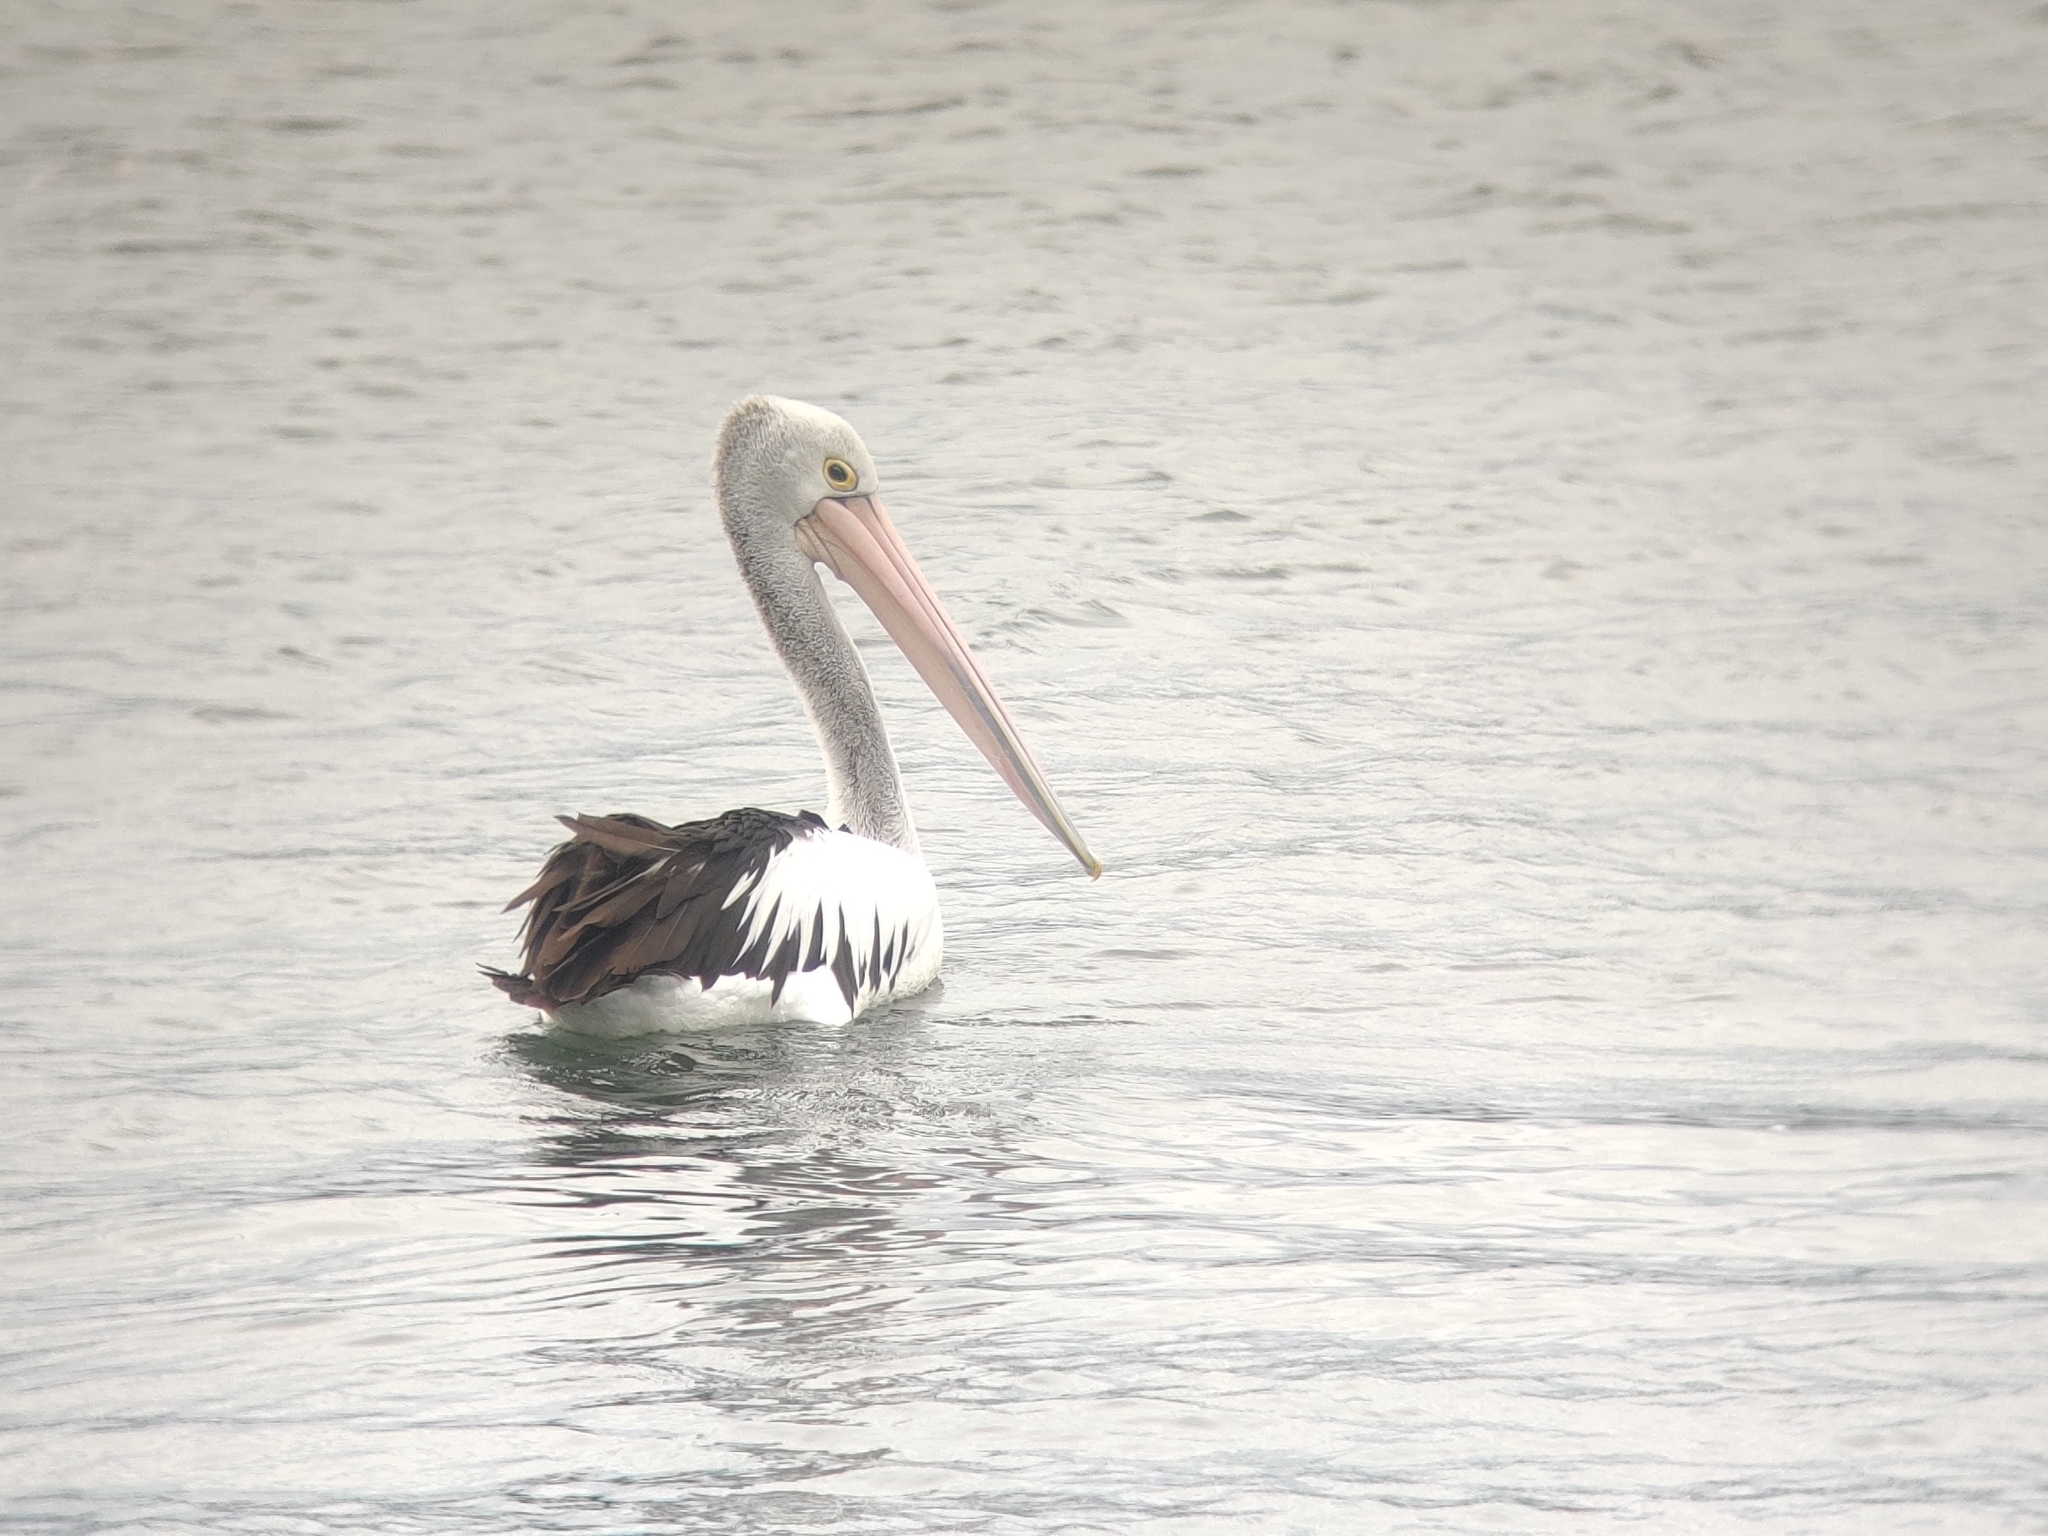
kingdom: Animalia
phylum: Chordata
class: Aves
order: Pelecaniformes
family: Pelecanidae
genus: Pelecanus
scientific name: Pelecanus conspicillatus
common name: Australian pelican
